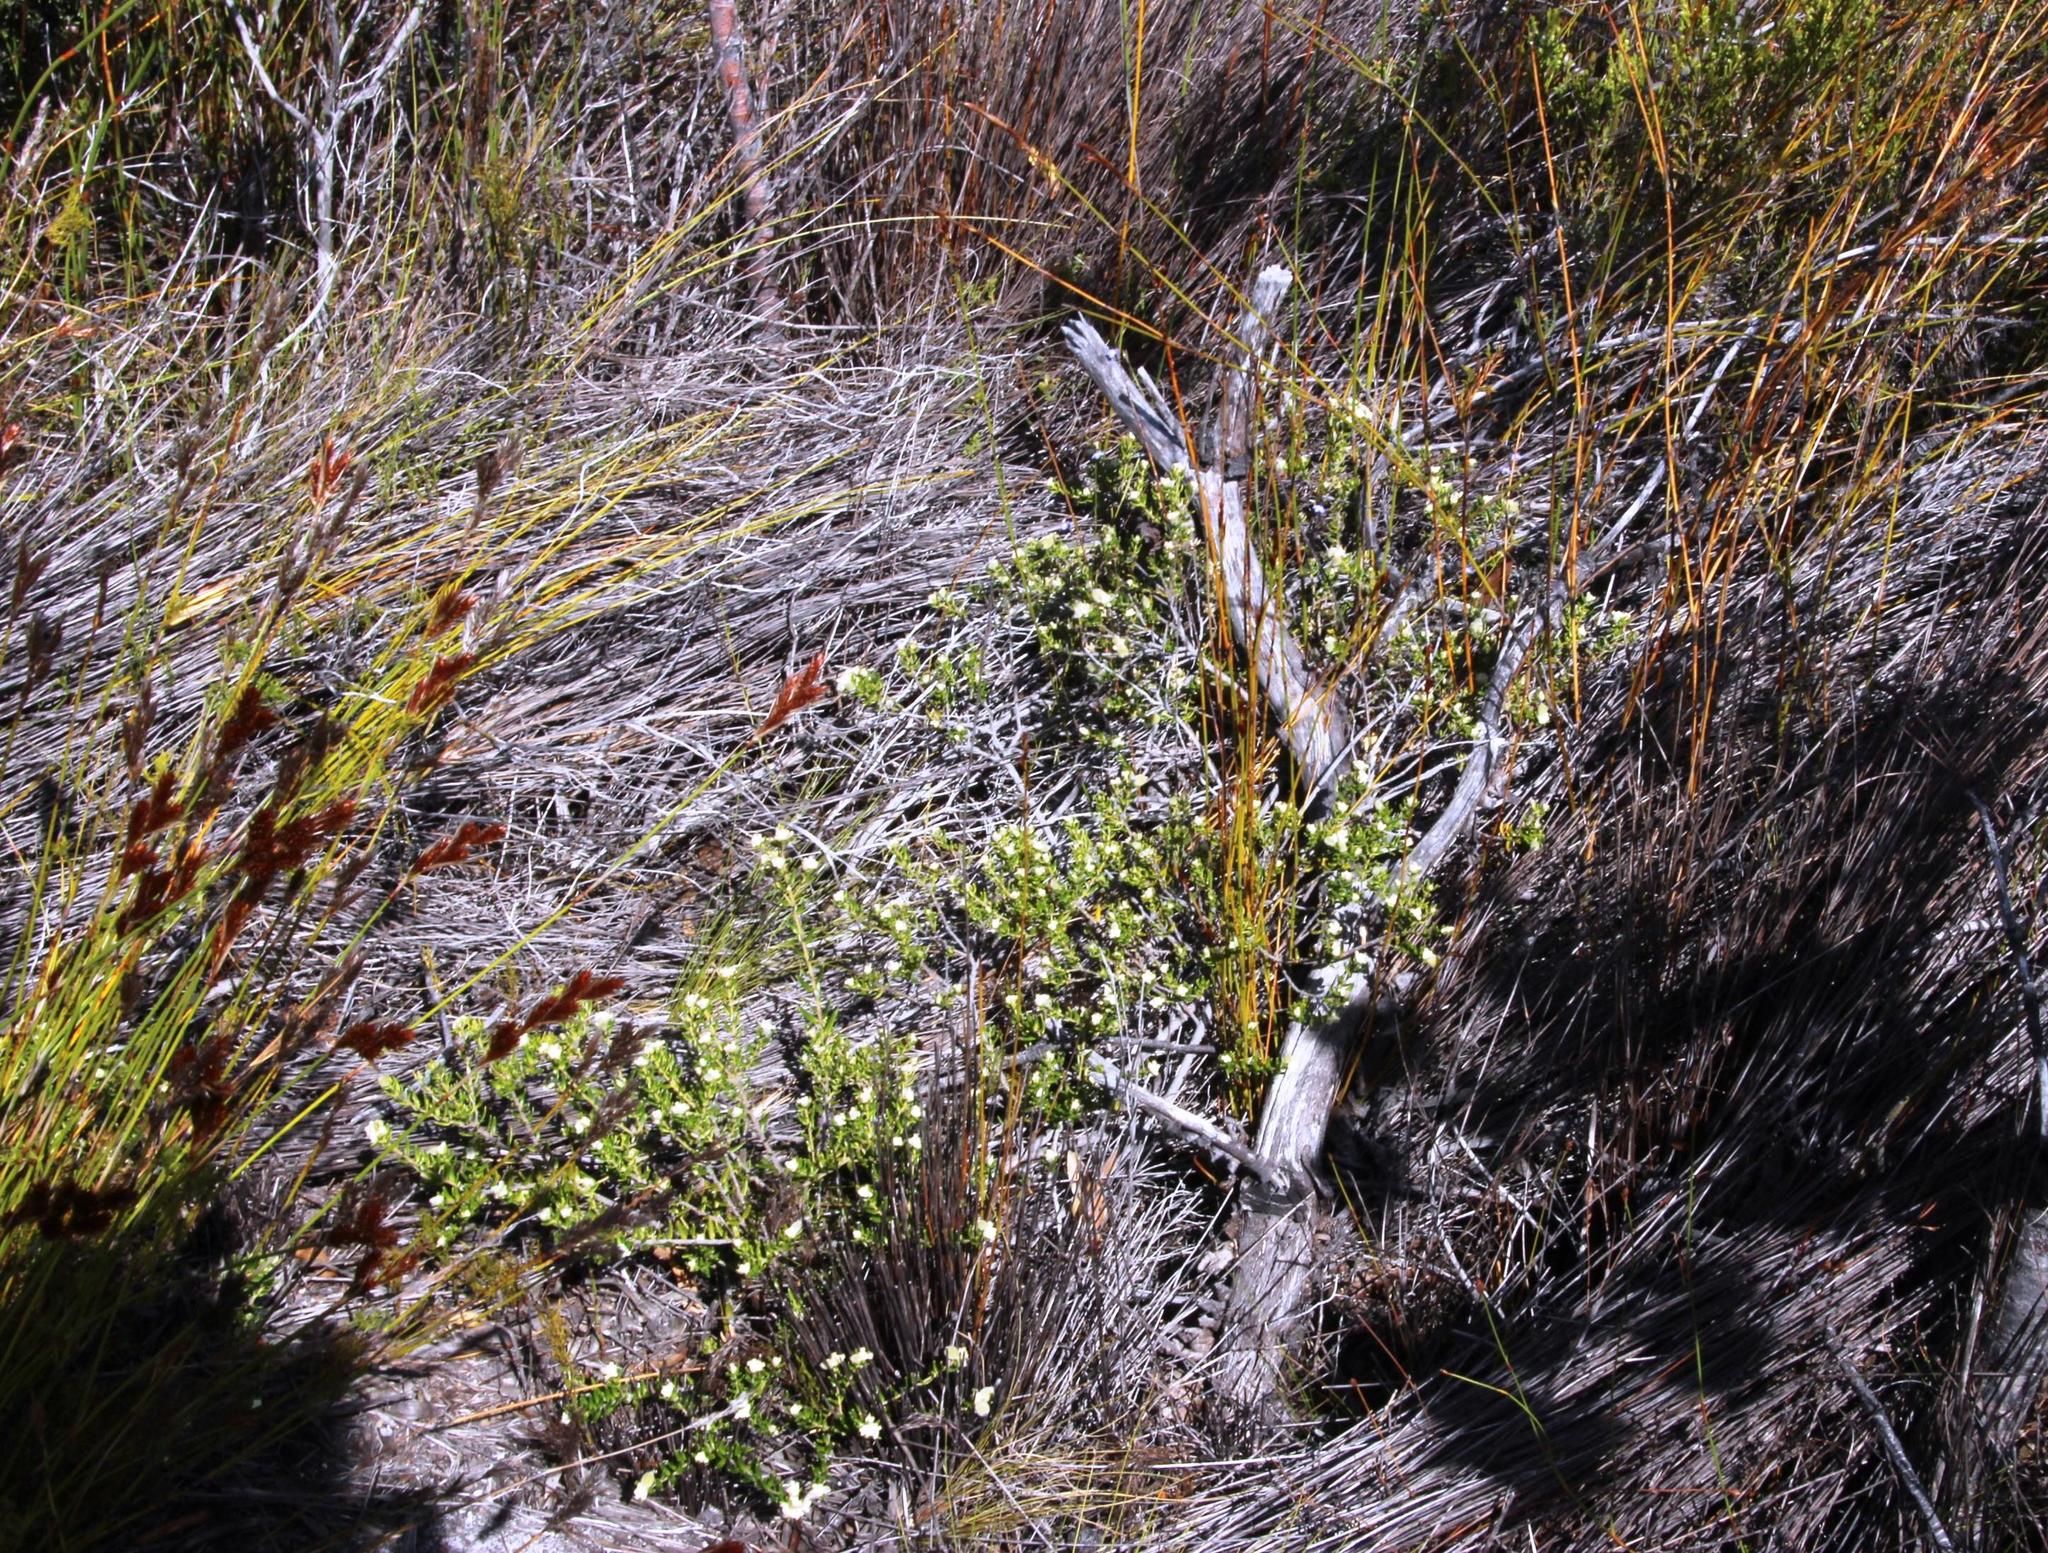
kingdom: Plantae
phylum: Tracheophyta
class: Magnoliopsida
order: Rosales
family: Rhamnaceae
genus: Phylica
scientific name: Phylica lasiocarpa
